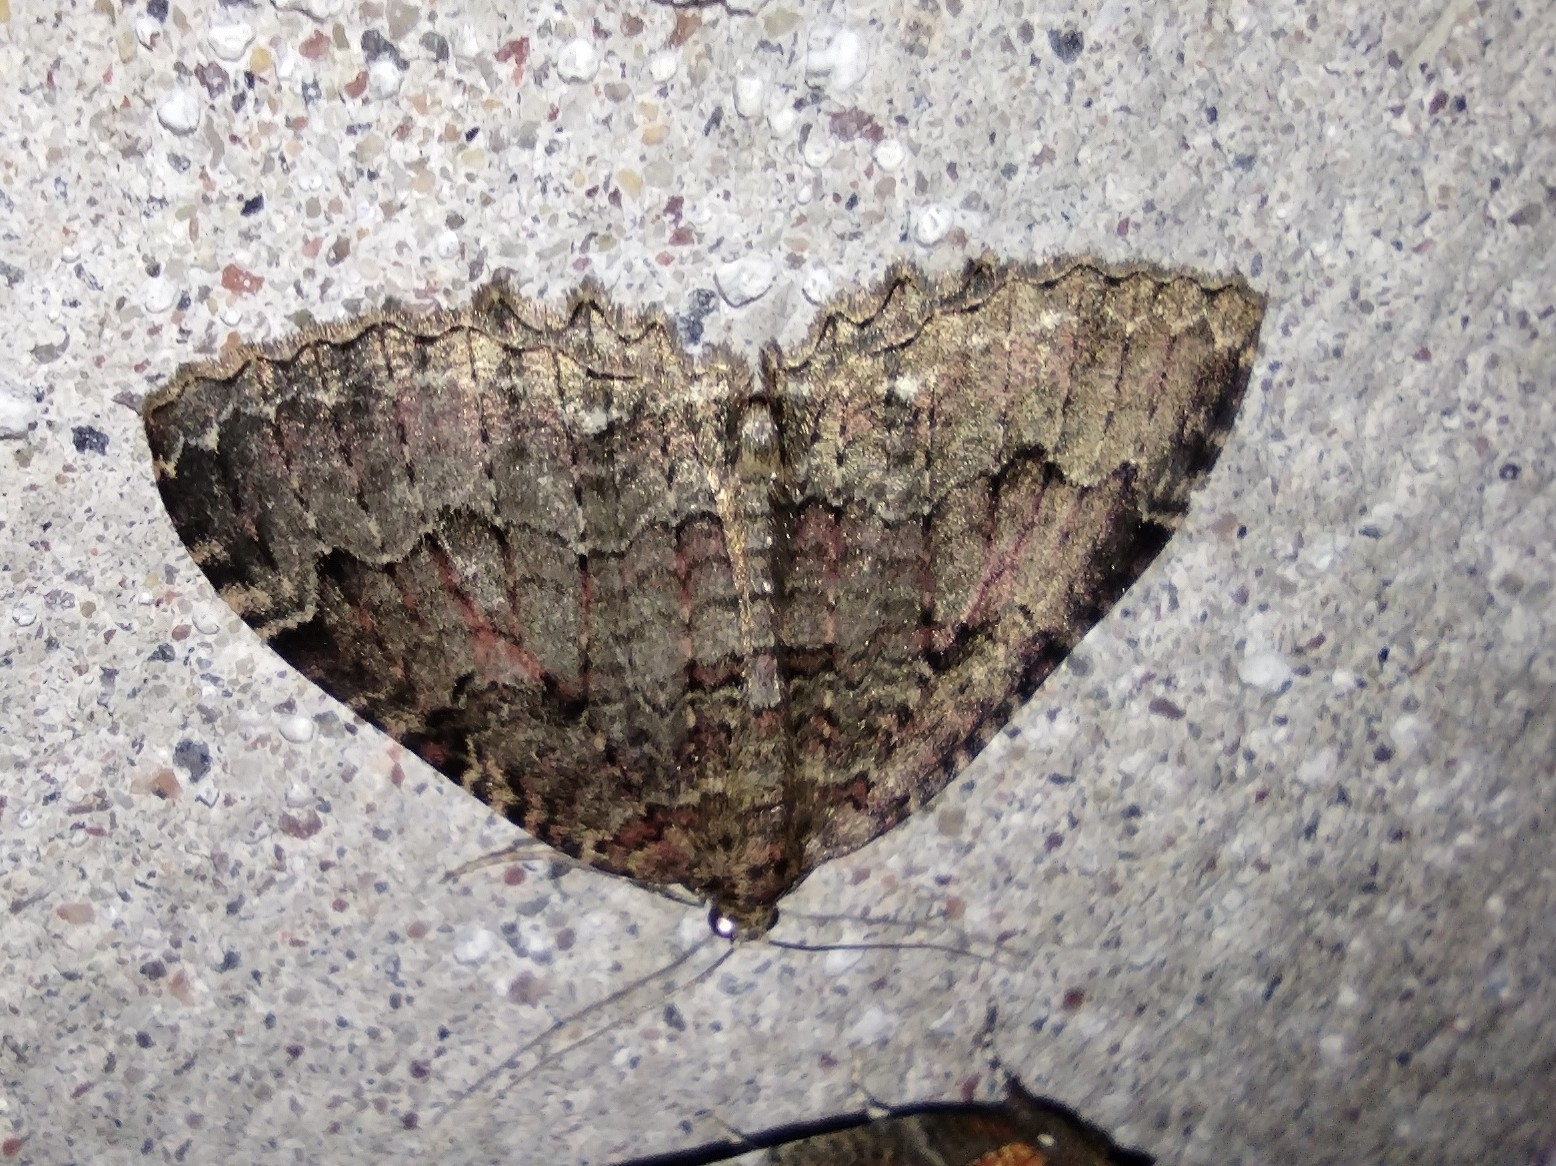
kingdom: Animalia
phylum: Arthropoda
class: Insecta
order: Lepidoptera
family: Geometridae
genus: Triphosa
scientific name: Triphosa dubitata
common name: Tissue
